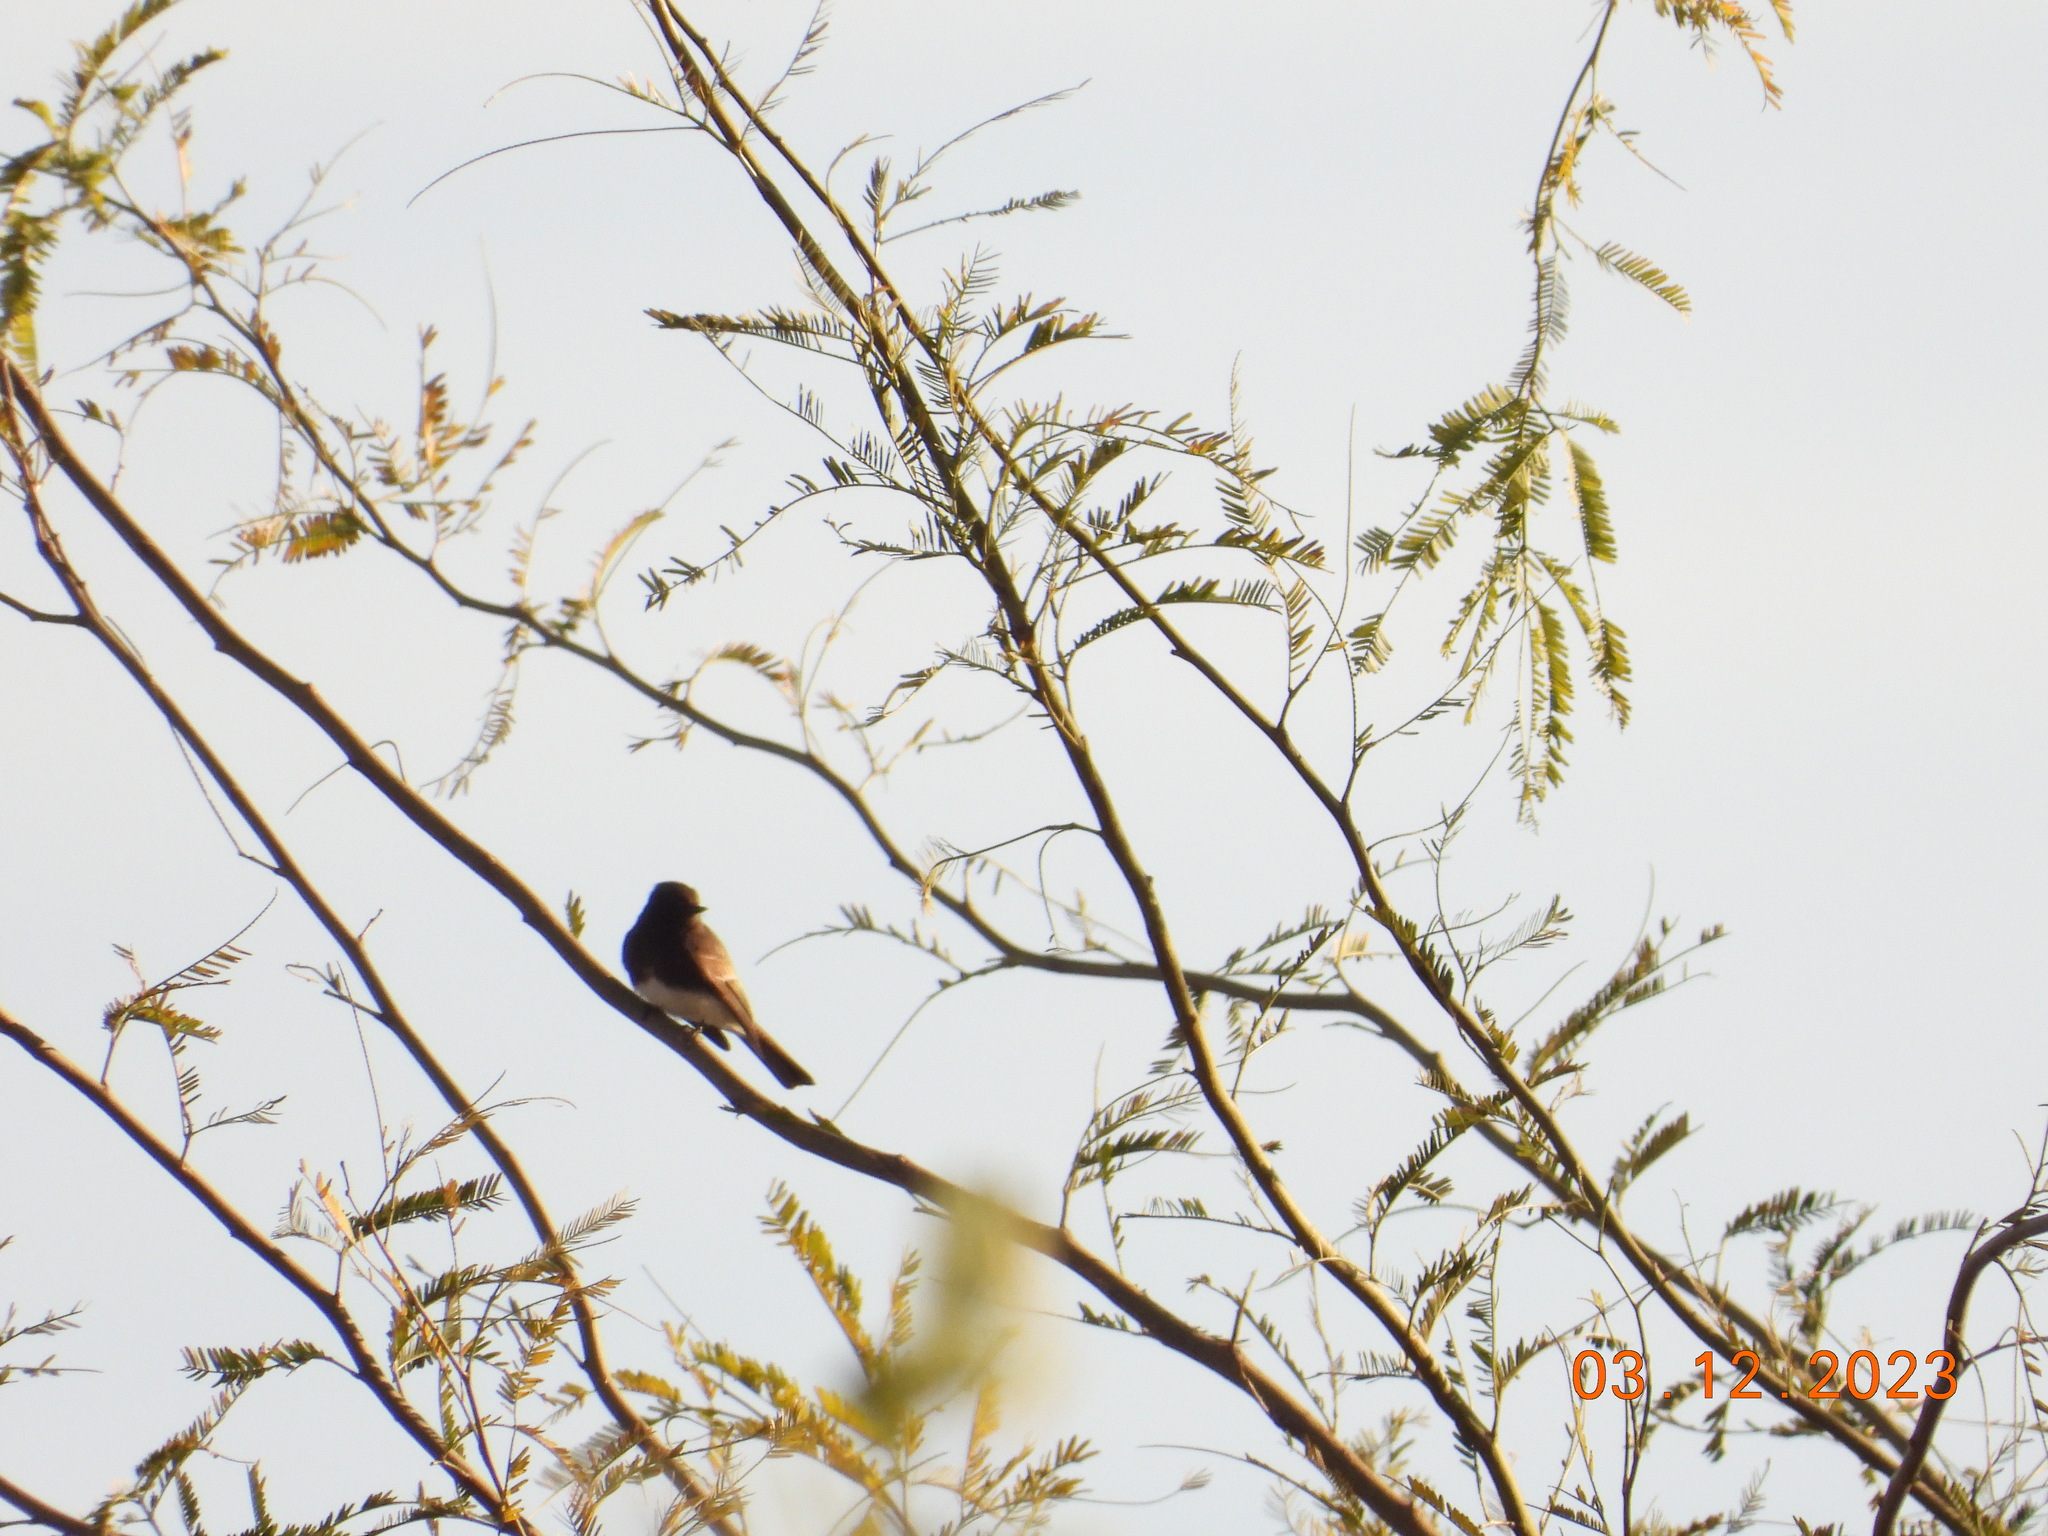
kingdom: Animalia
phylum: Chordata
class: Aves
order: Passeriformes
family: Tyrannidae
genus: Sayornis
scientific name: Sayornis nigricans
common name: Black phoebe
